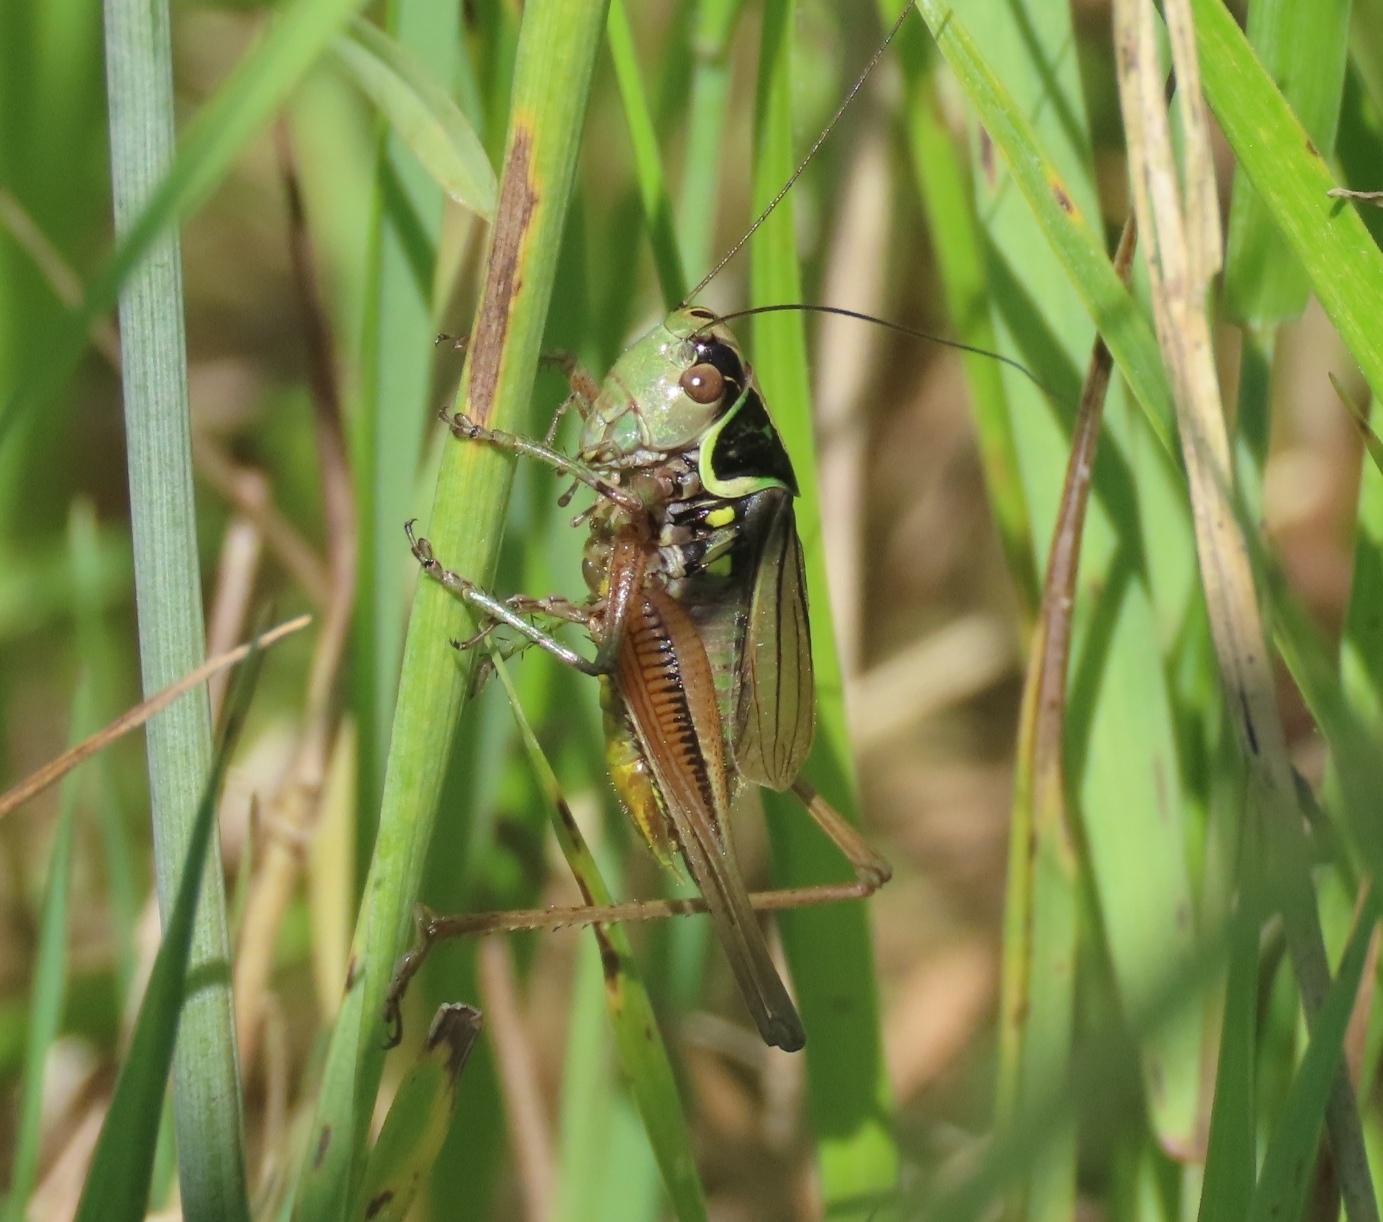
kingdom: Animalia
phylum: Arthropoda
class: Insecta
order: Orthoptera
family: Tettigoniidae
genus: Roeseliana
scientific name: Roeseliana roeselii
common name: Roesel's bush cricket
